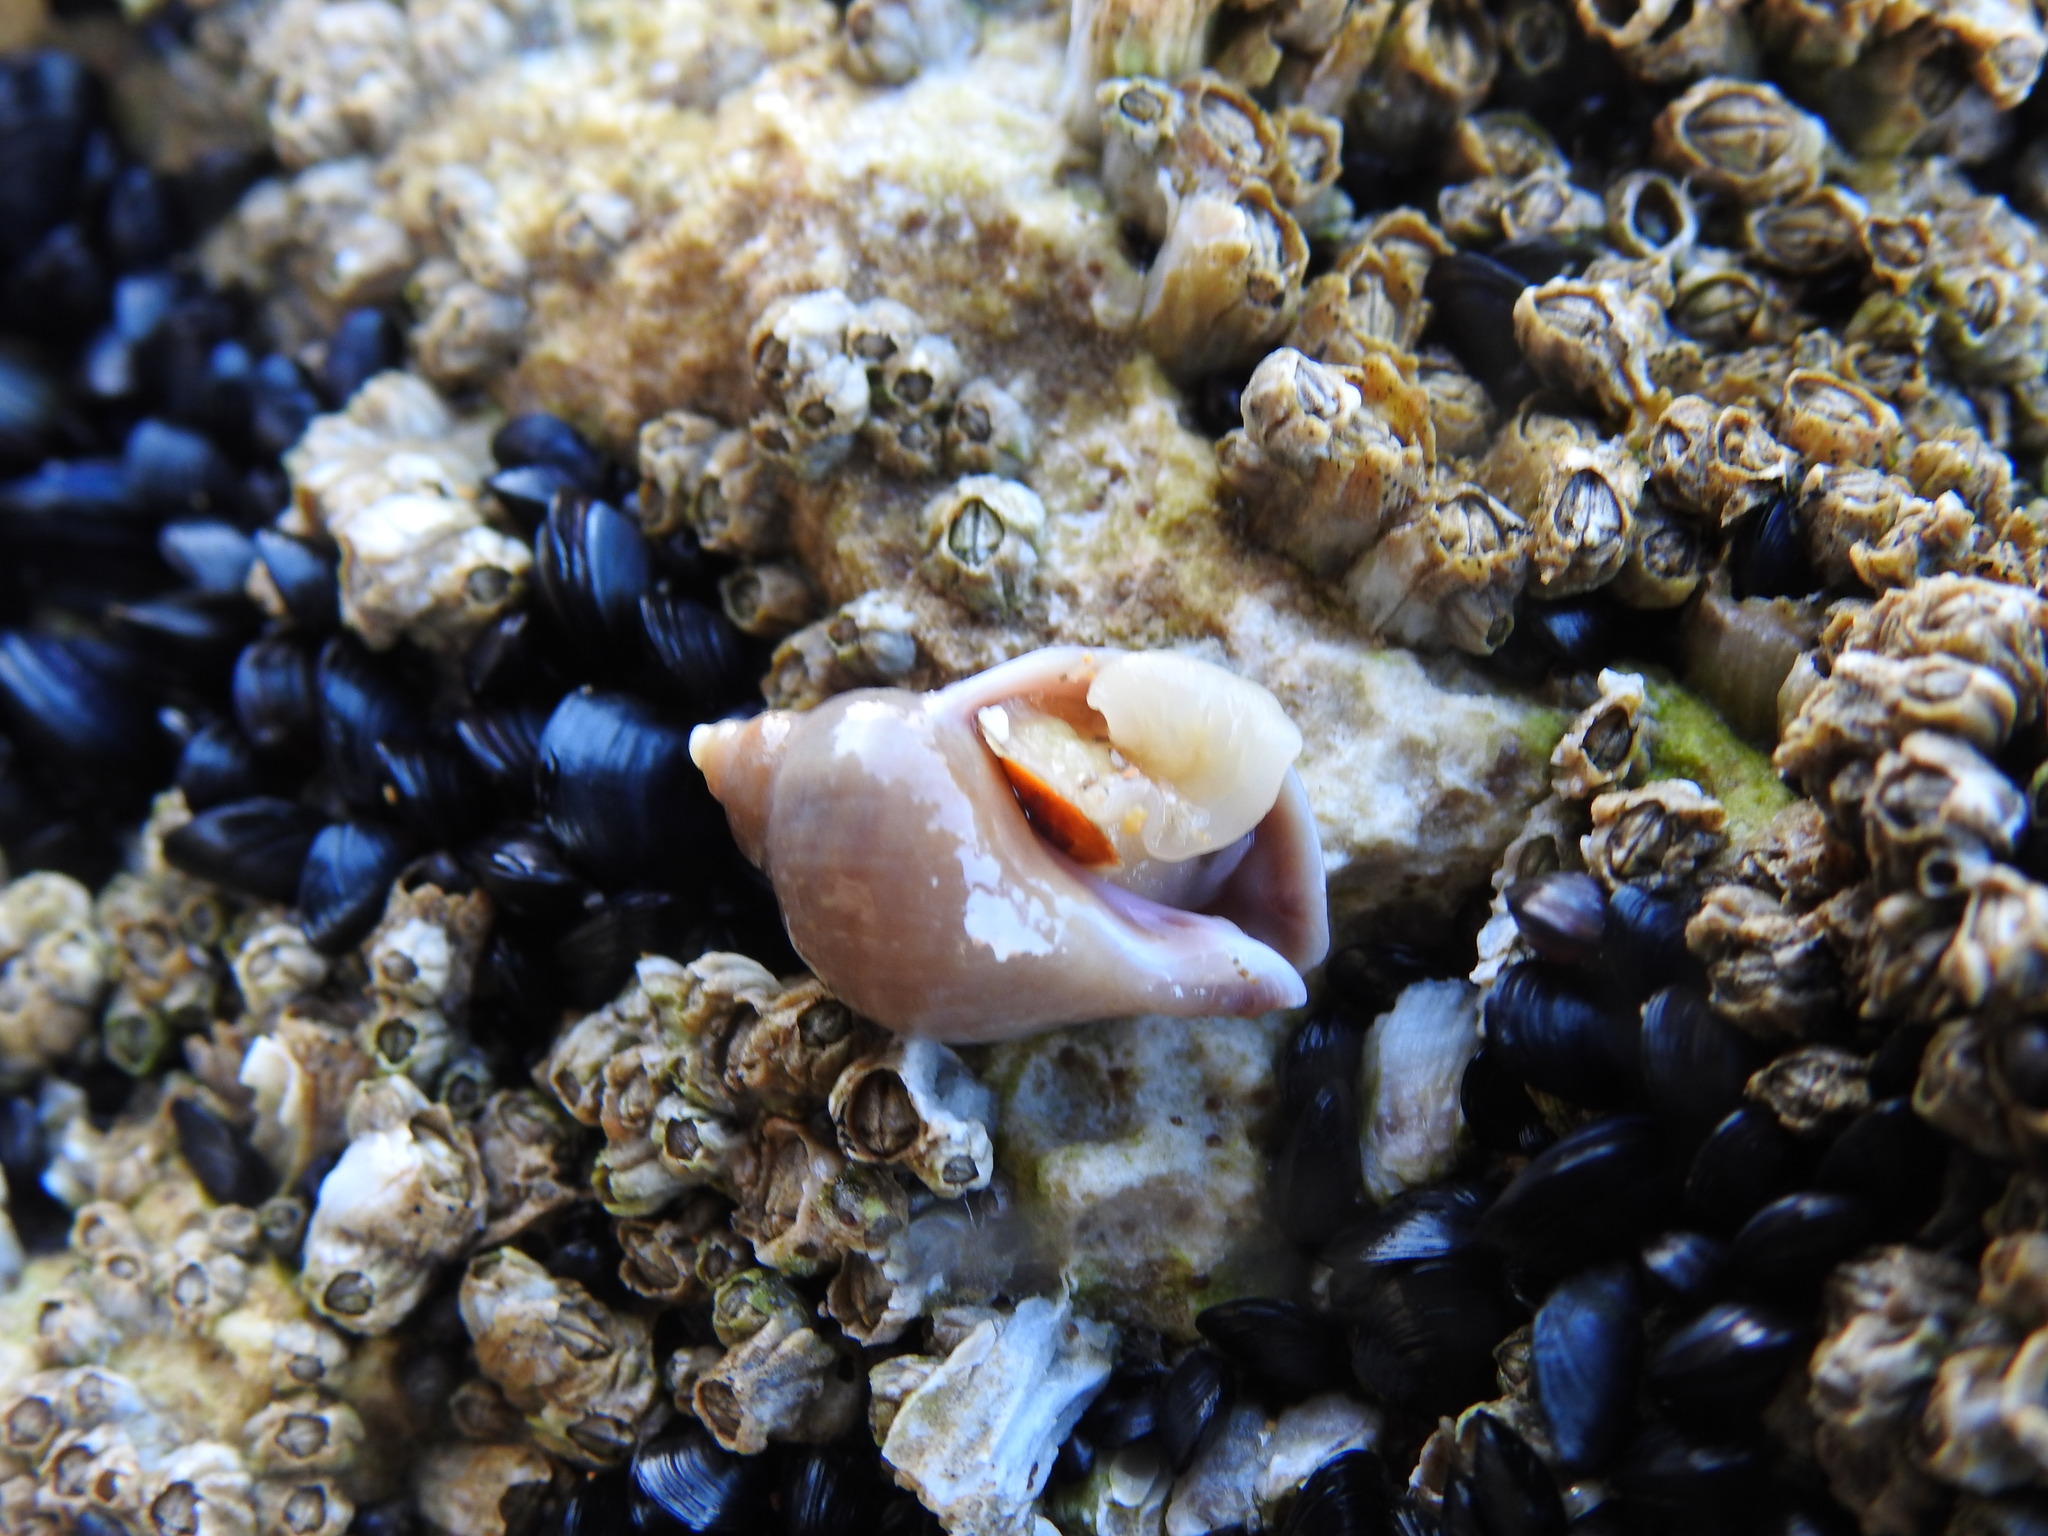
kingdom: Animalia
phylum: Mollusca
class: Gastropoda
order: Neogastropoda
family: Muricidae
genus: Nucella
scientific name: Nucella lapillus
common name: Dog whelk
